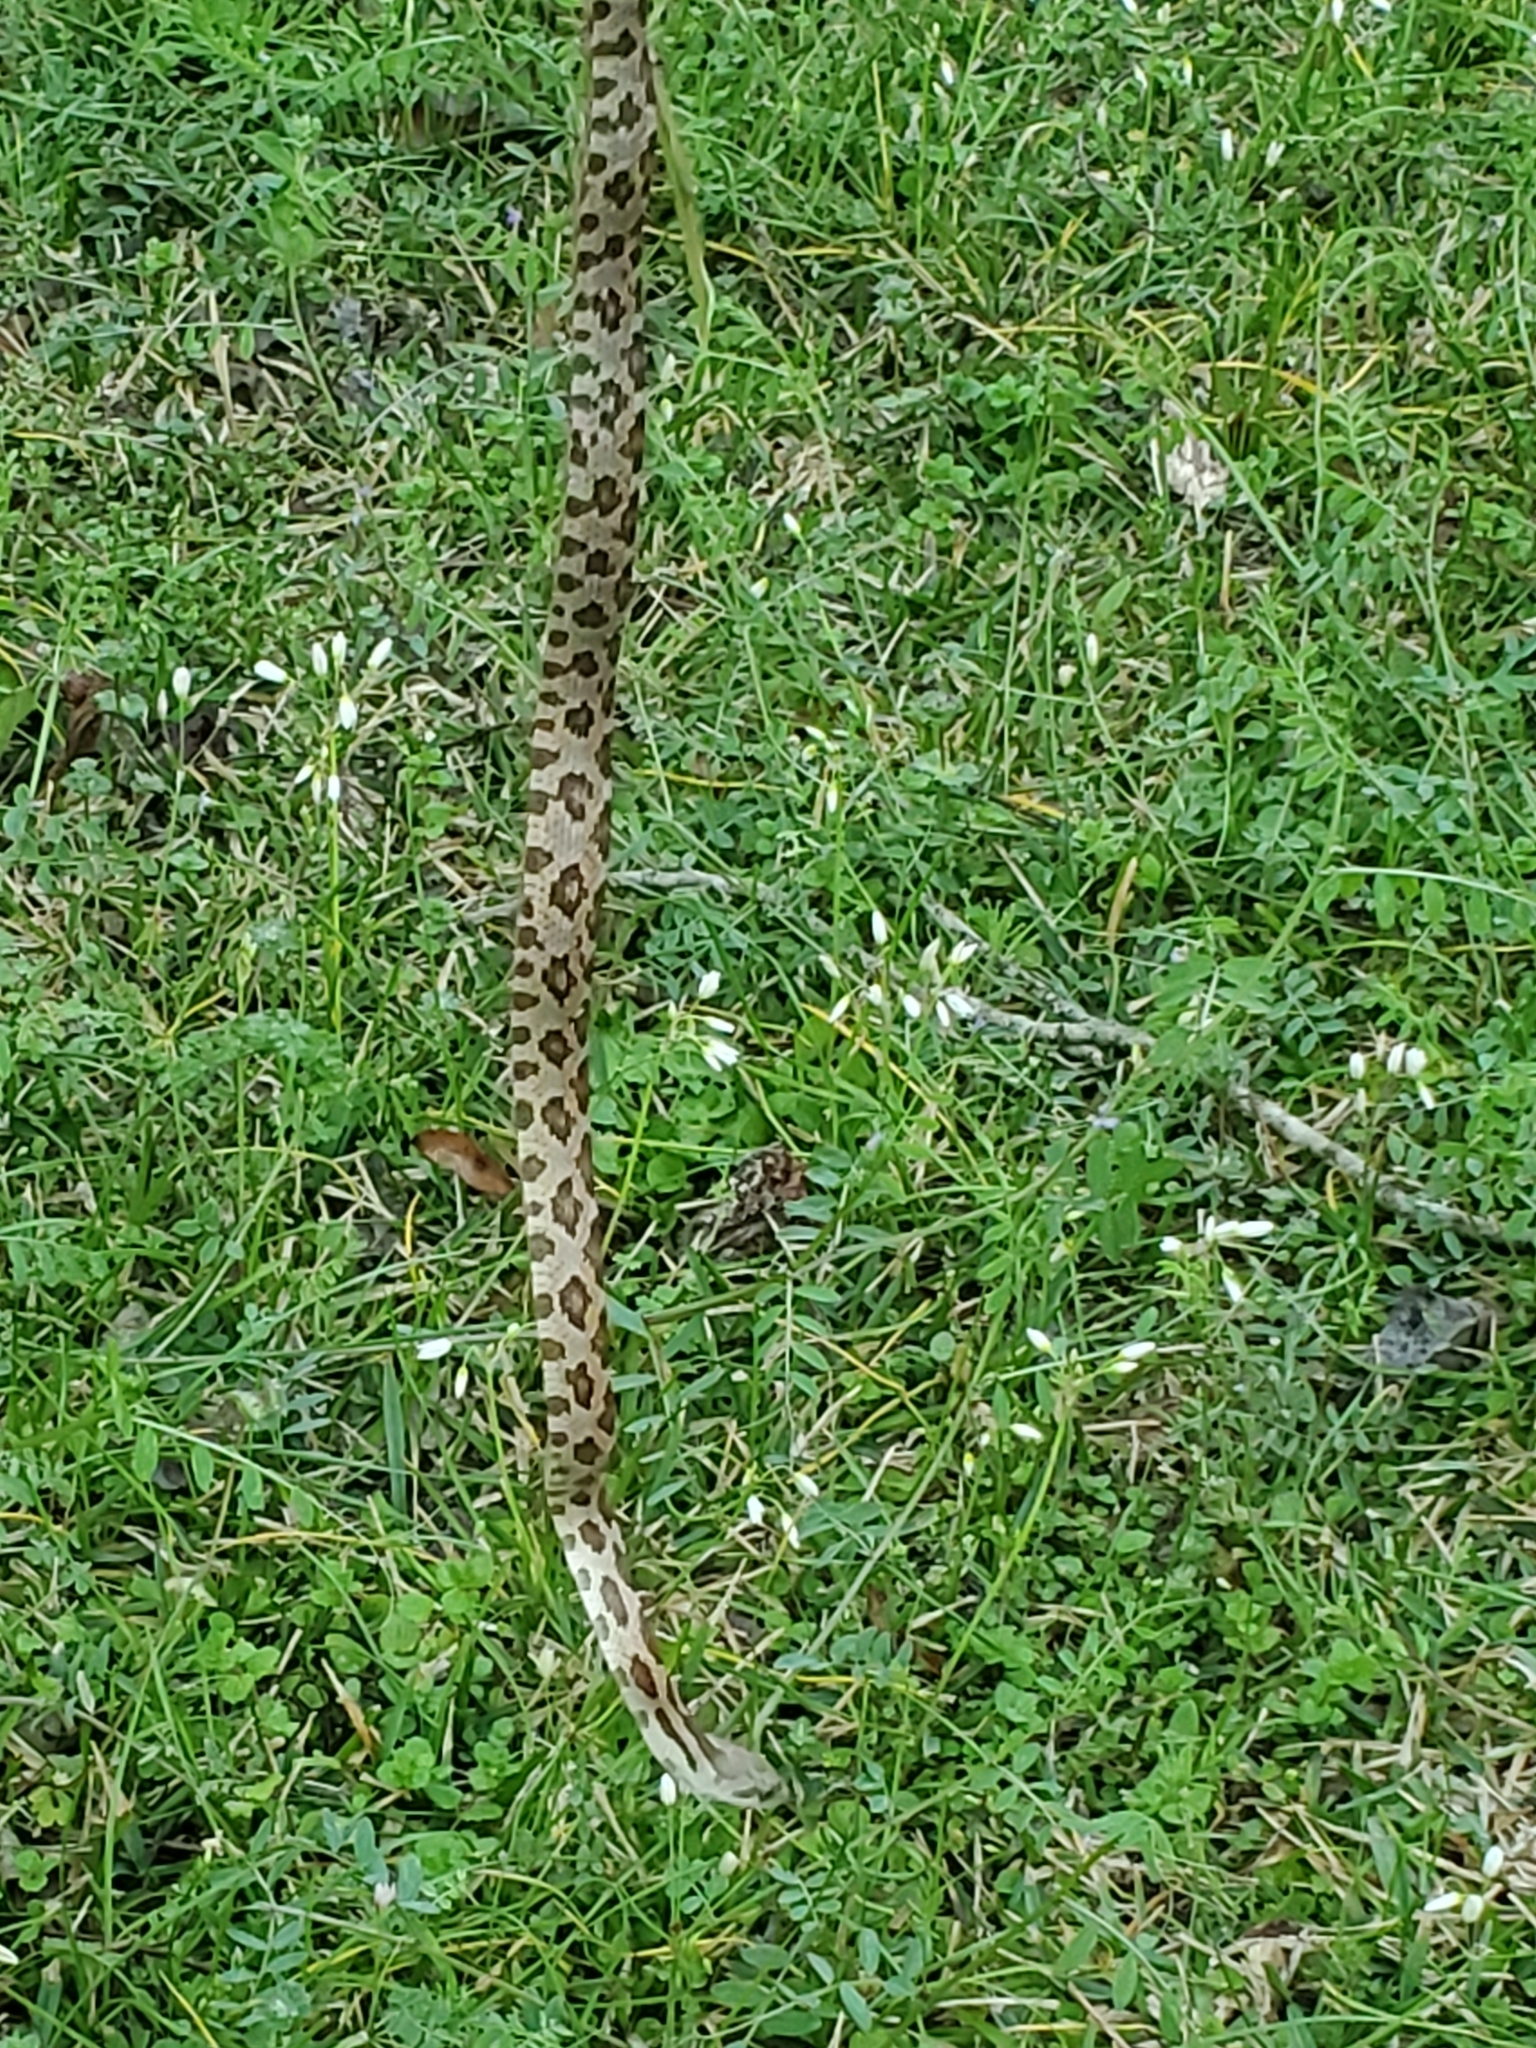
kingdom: Animalia
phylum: Chordata
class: Squamata
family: Colubridae
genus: Pantherophis
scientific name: Pantherophis obsoletus
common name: Black rat snake
